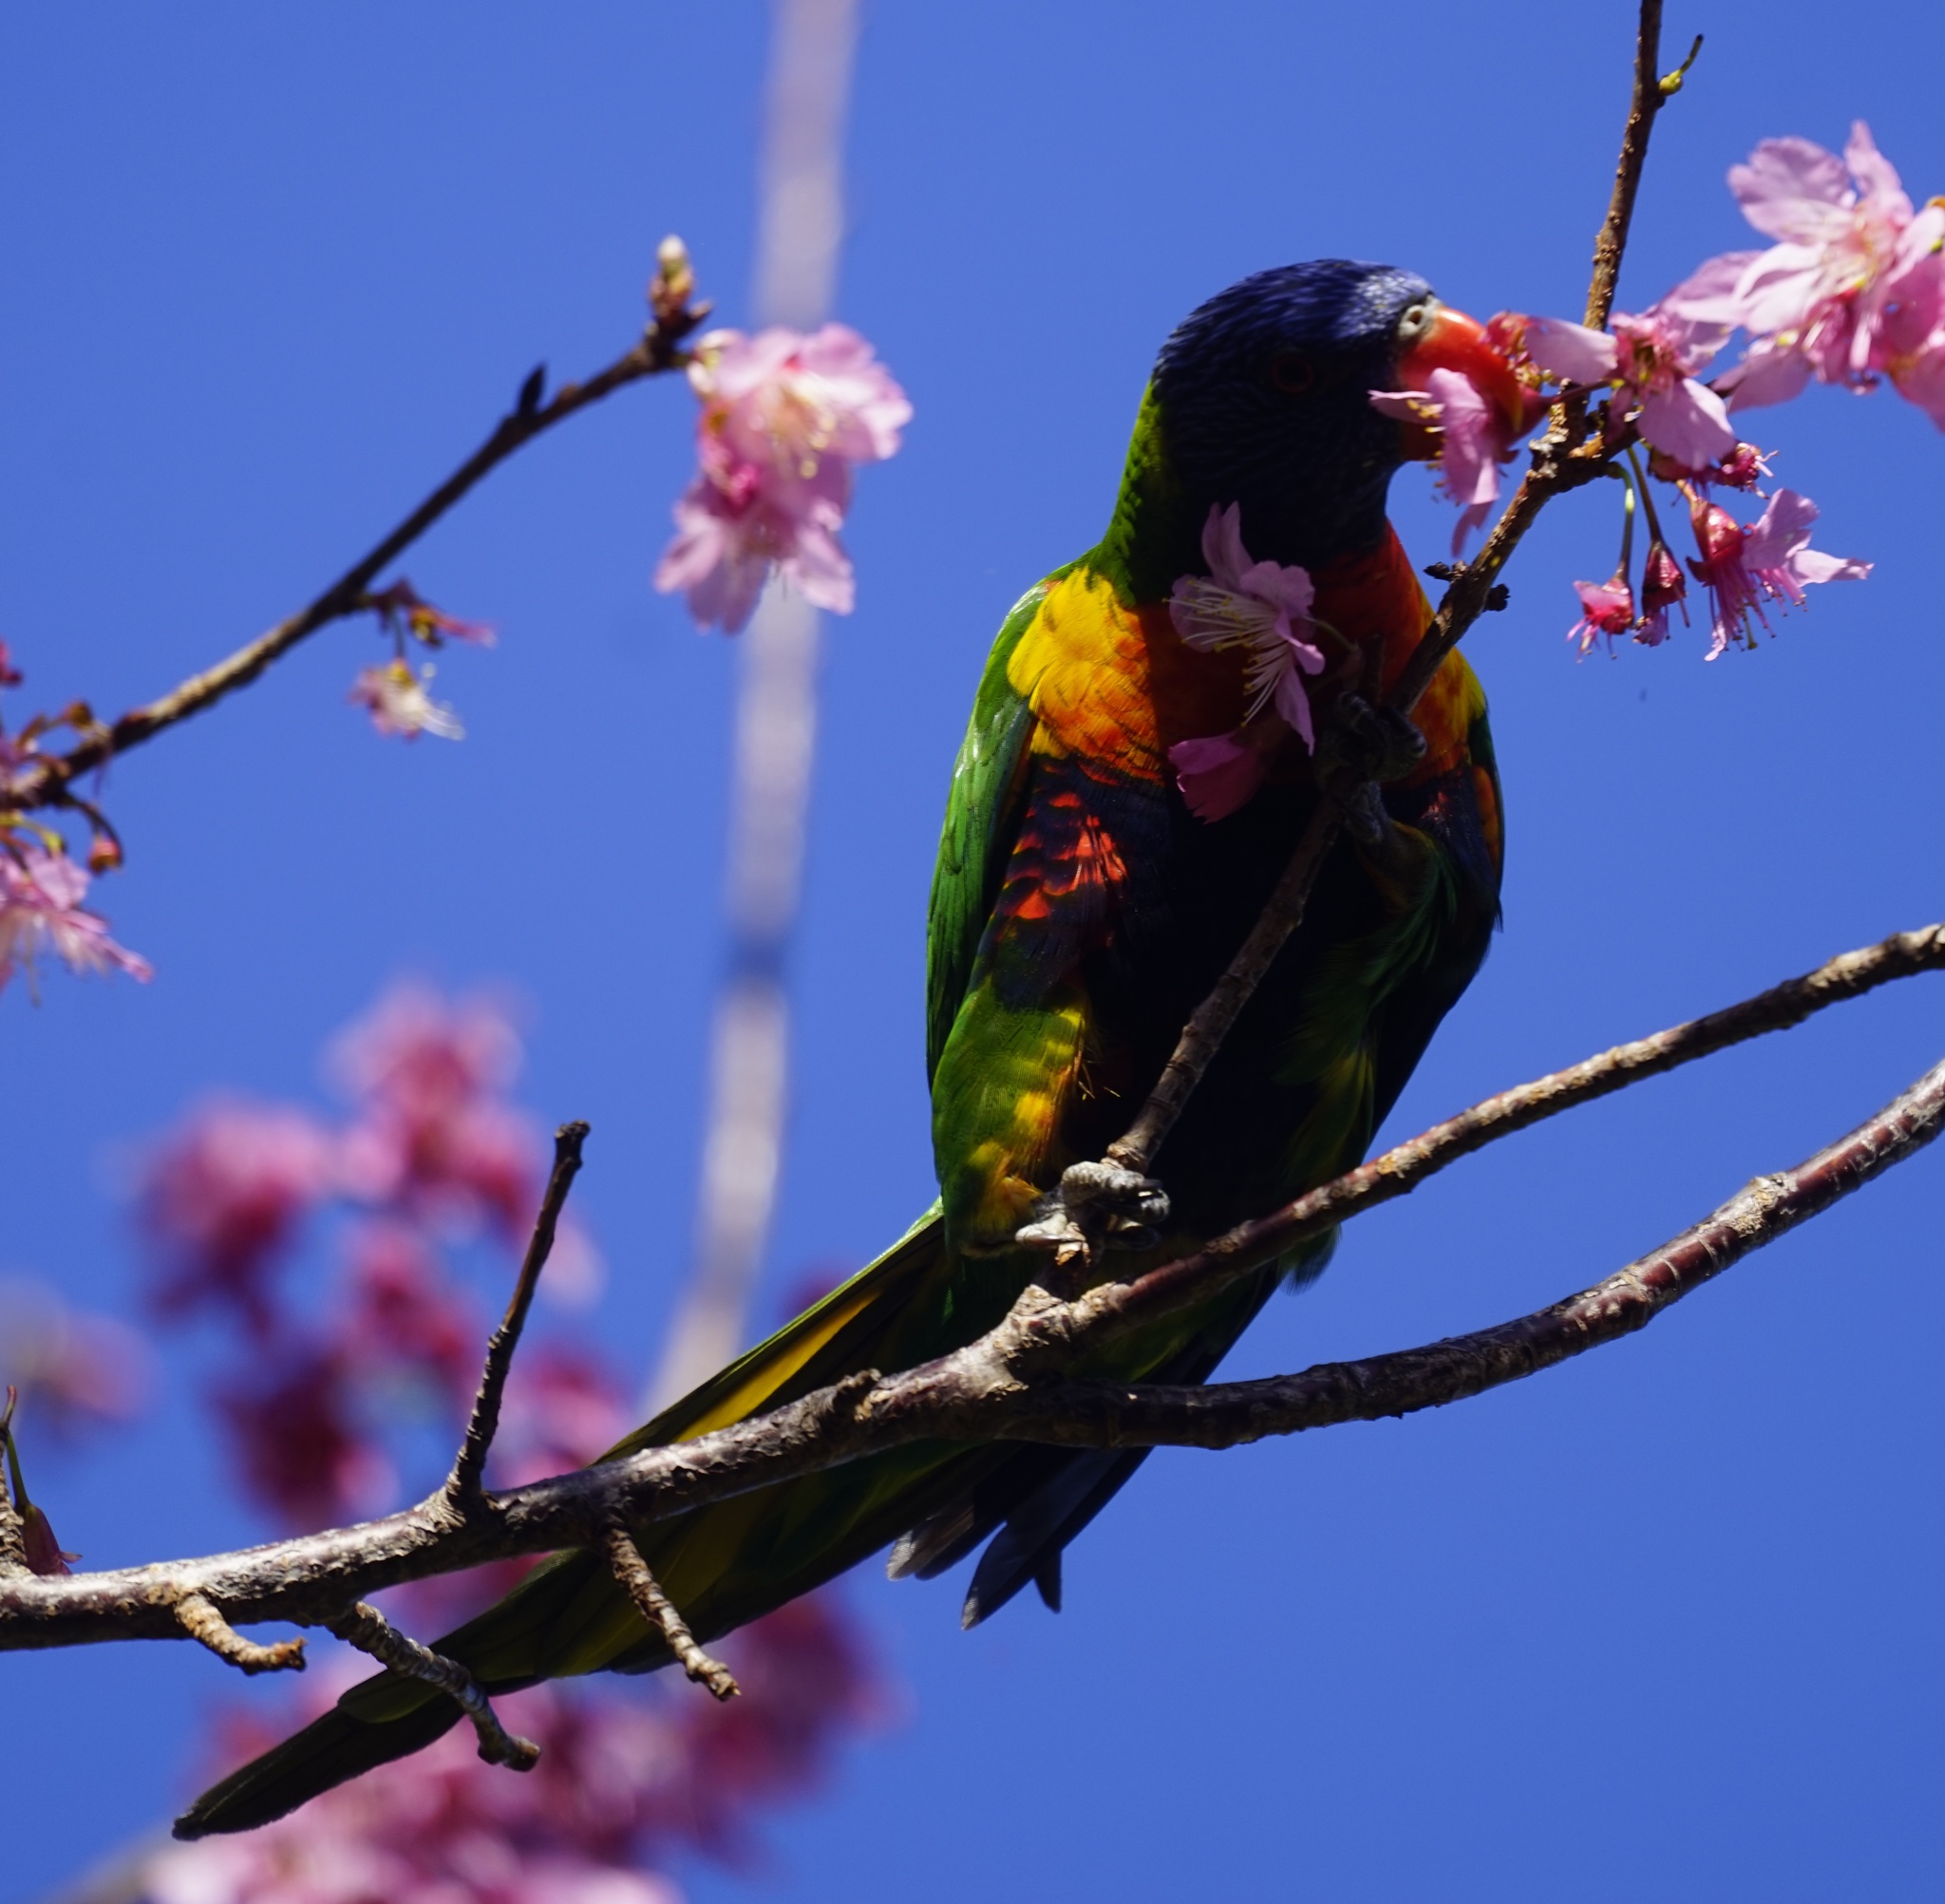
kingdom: Animalia
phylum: Chordata
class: Aves
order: Psittaciformes
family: Psittacidae
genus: Trichoglossus
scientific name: Trichoglossus haematodus
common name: Coconut lorikeet
